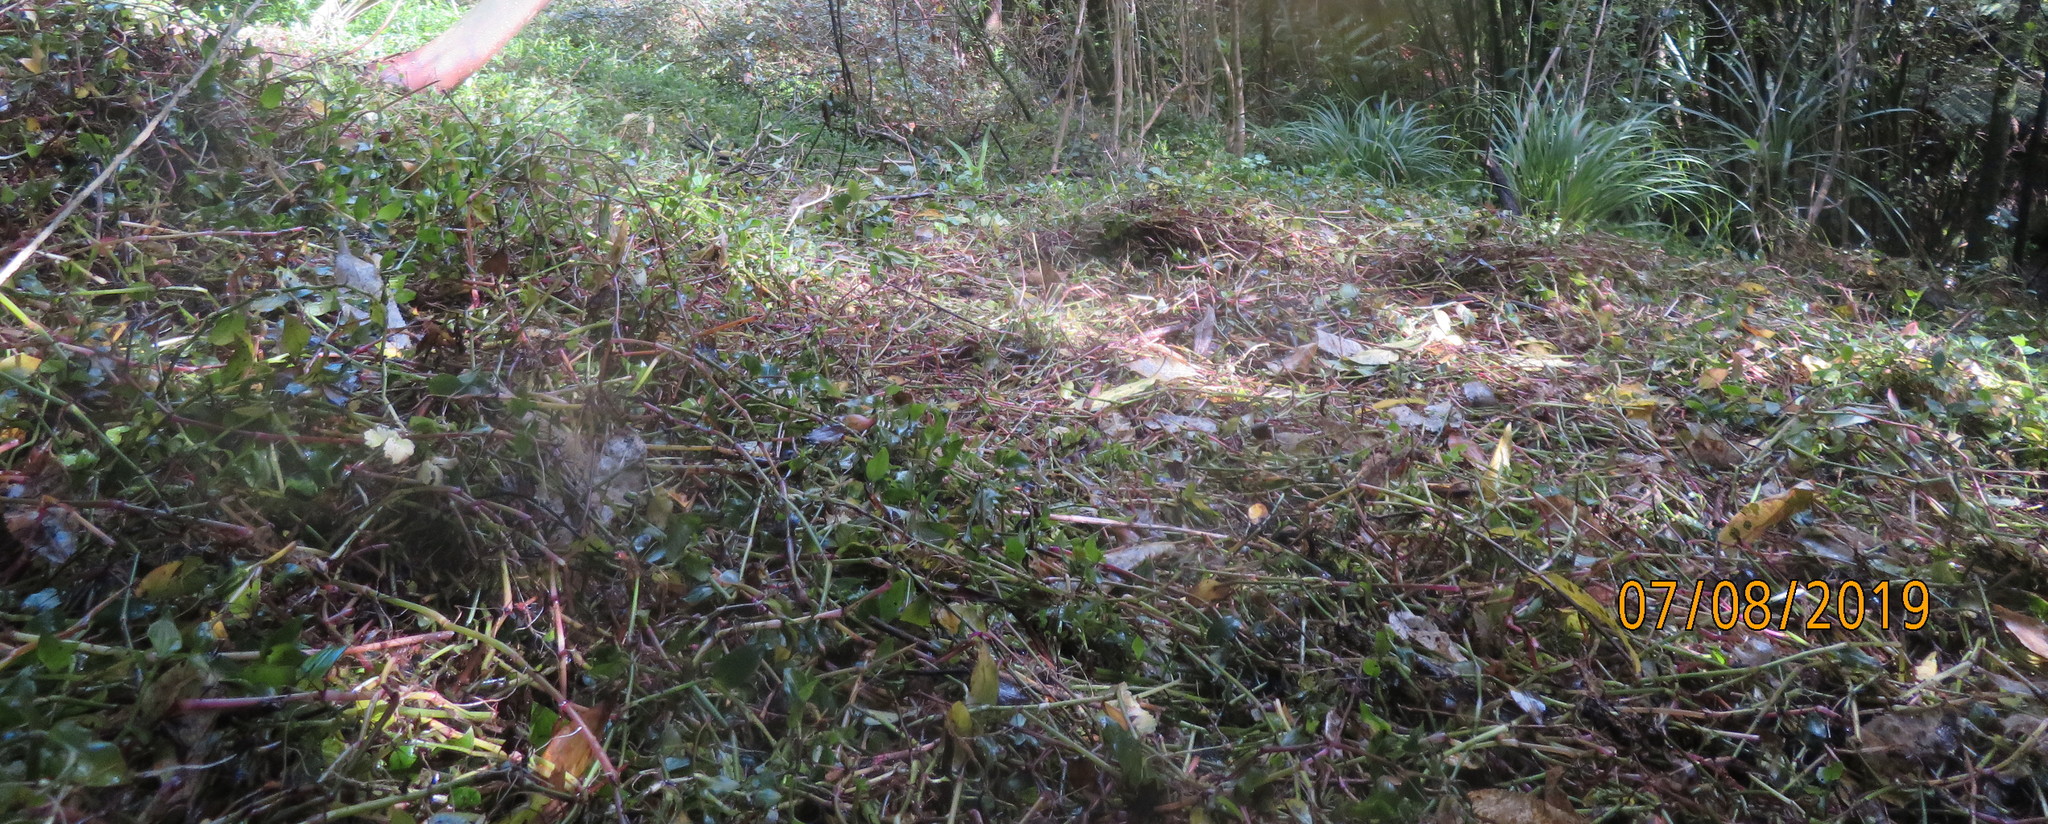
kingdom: Plantae
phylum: Tracheophyta
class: Liliopsida
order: Commelinales
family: Commelinaceae
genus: Tradescantia
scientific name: Tradescantia fluminensis
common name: Wandering-jew
